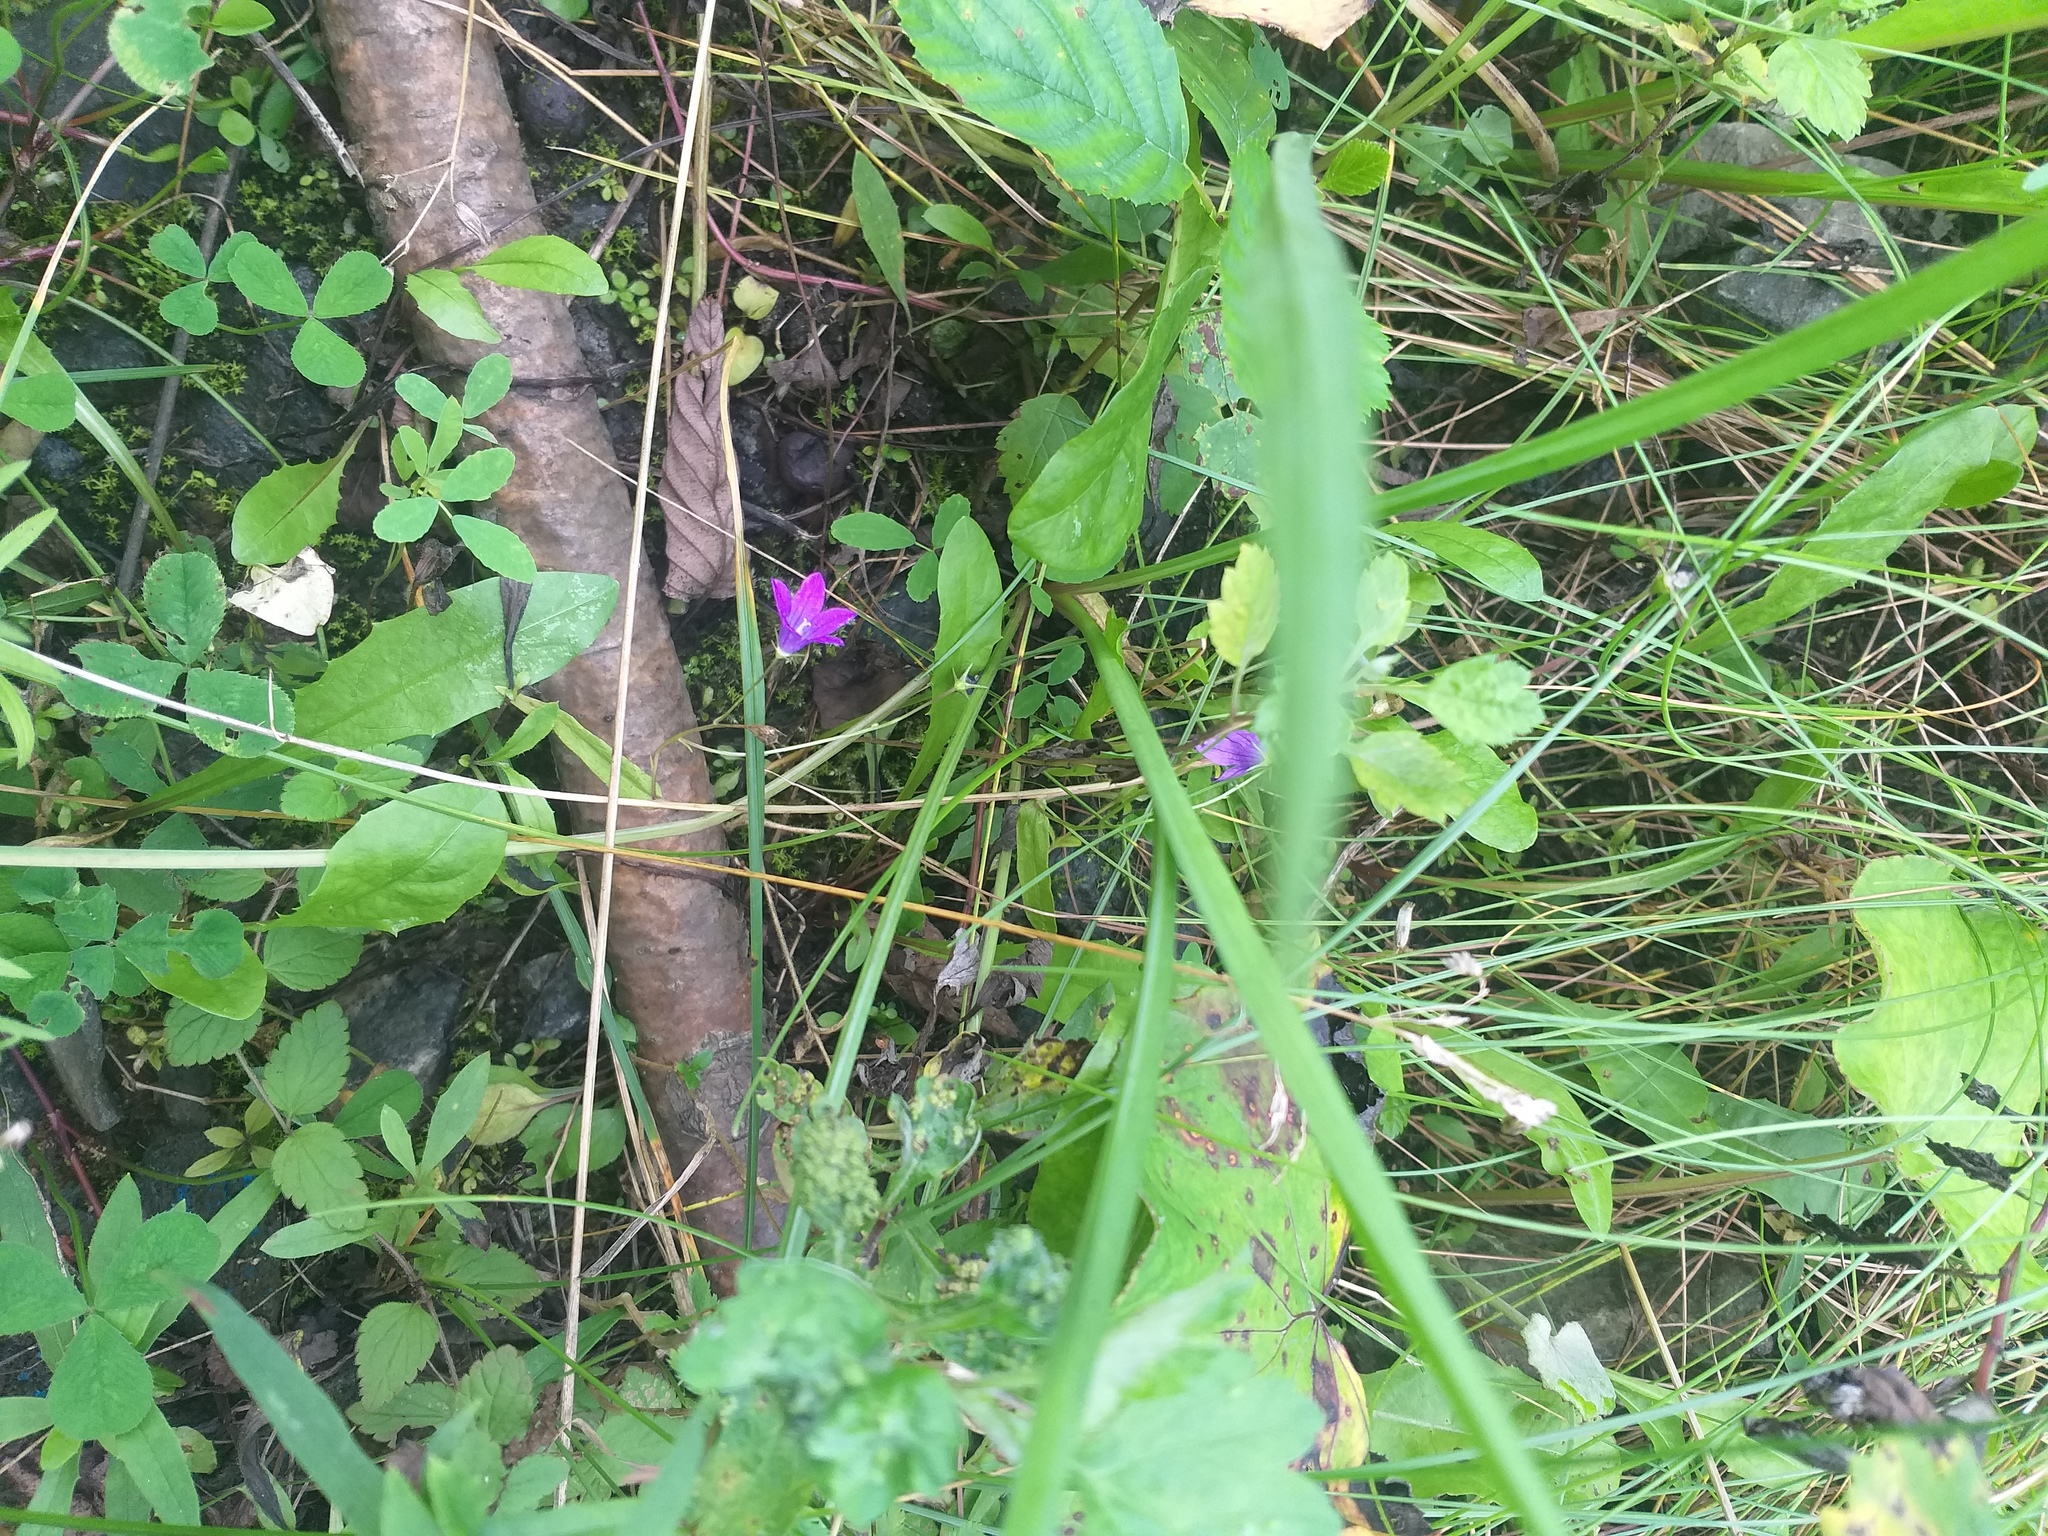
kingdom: Plantae
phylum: Tracheophyta
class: Magnoliopsida
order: Asterales
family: Campanulaceae
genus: Campanula
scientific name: Campanula patula
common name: Spreading bellflower
